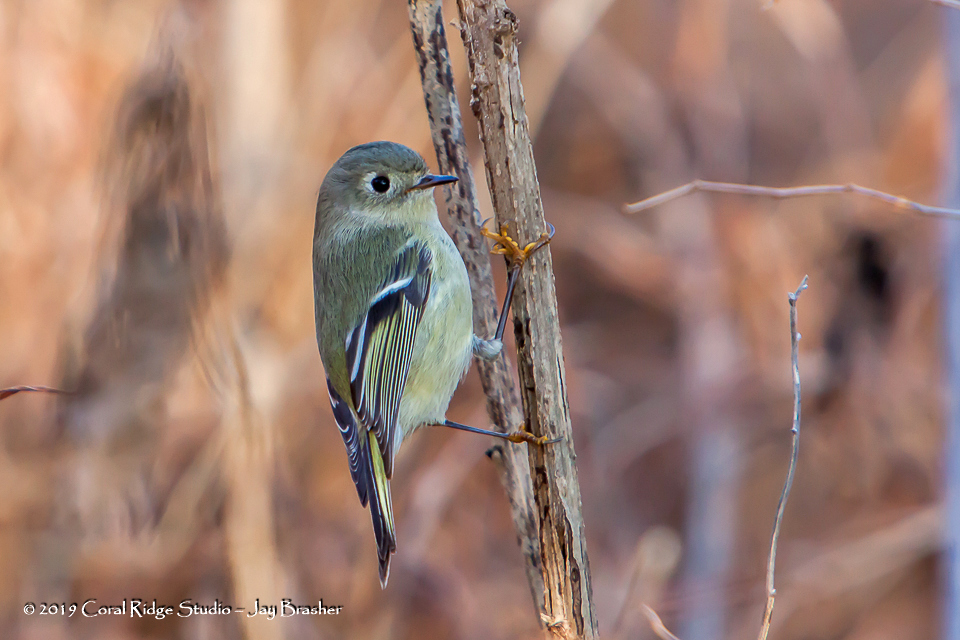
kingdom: Animalia
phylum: Chordata
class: Aves
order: Passeriformes
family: Regulidae
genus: Regulus
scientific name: Regulus calendula
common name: Ruby-crowned kinglet
